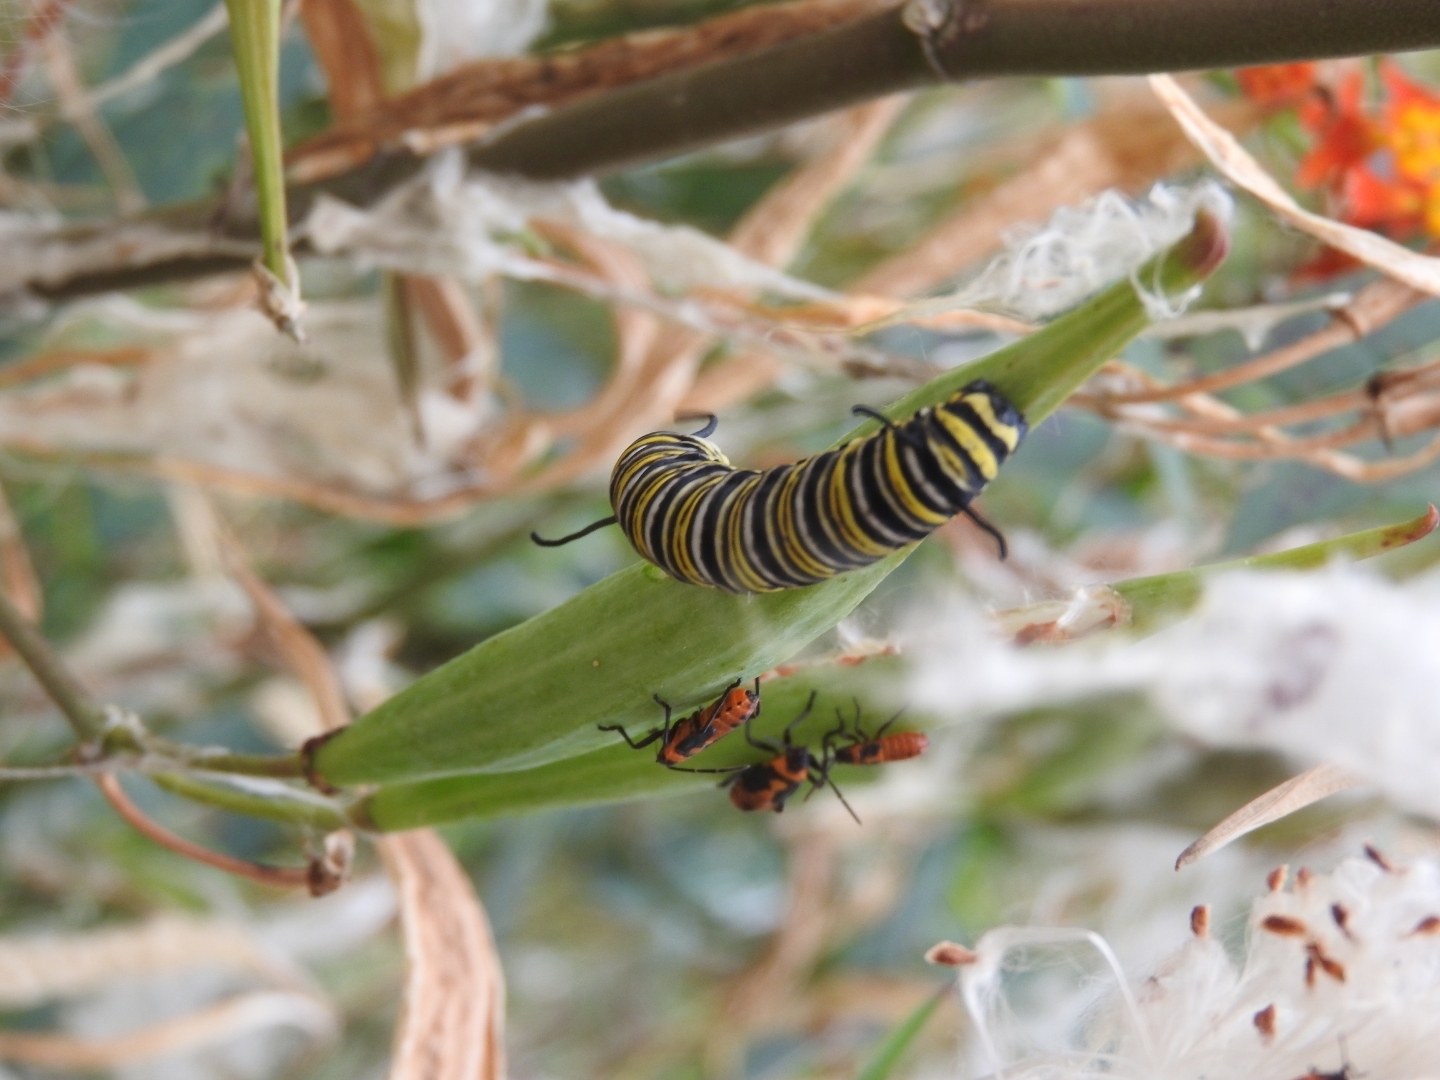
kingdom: Animalia
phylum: Arthropoda
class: Insecta
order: Lepidoptera
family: Nymphalidae
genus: Danaus
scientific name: Danaus plexippus
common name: Monarch
